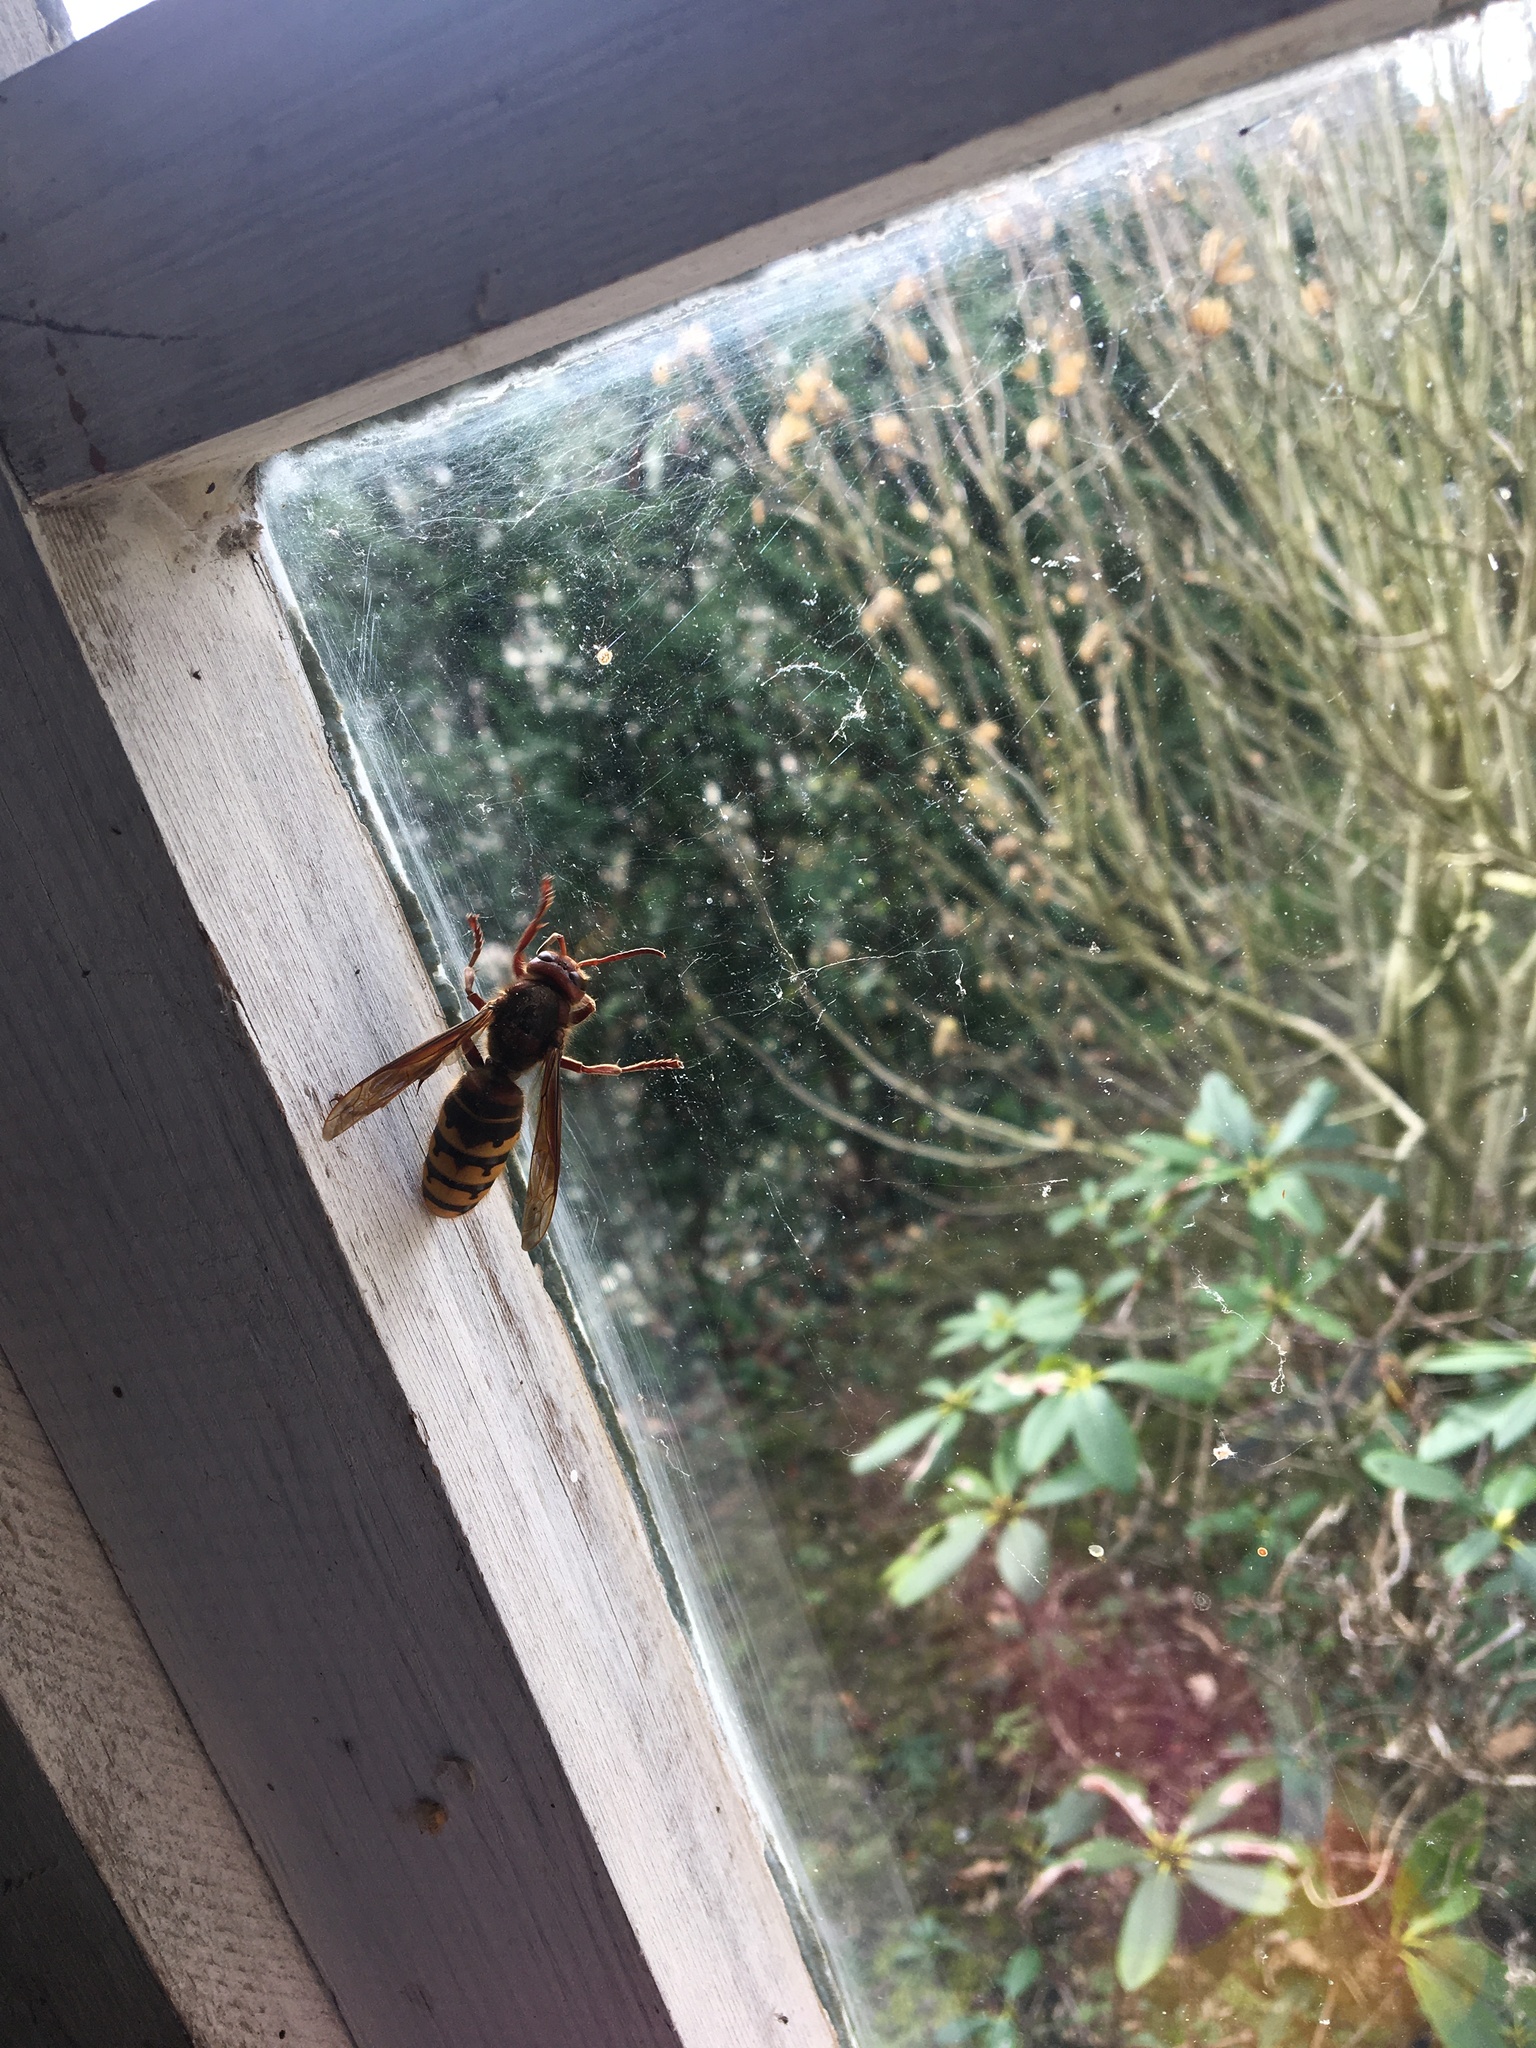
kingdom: Animalia
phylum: Arthropoda
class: Insecta
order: Hymenoptera
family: Vespidae
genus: Vespa
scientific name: Vespa crabro
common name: Hornet
